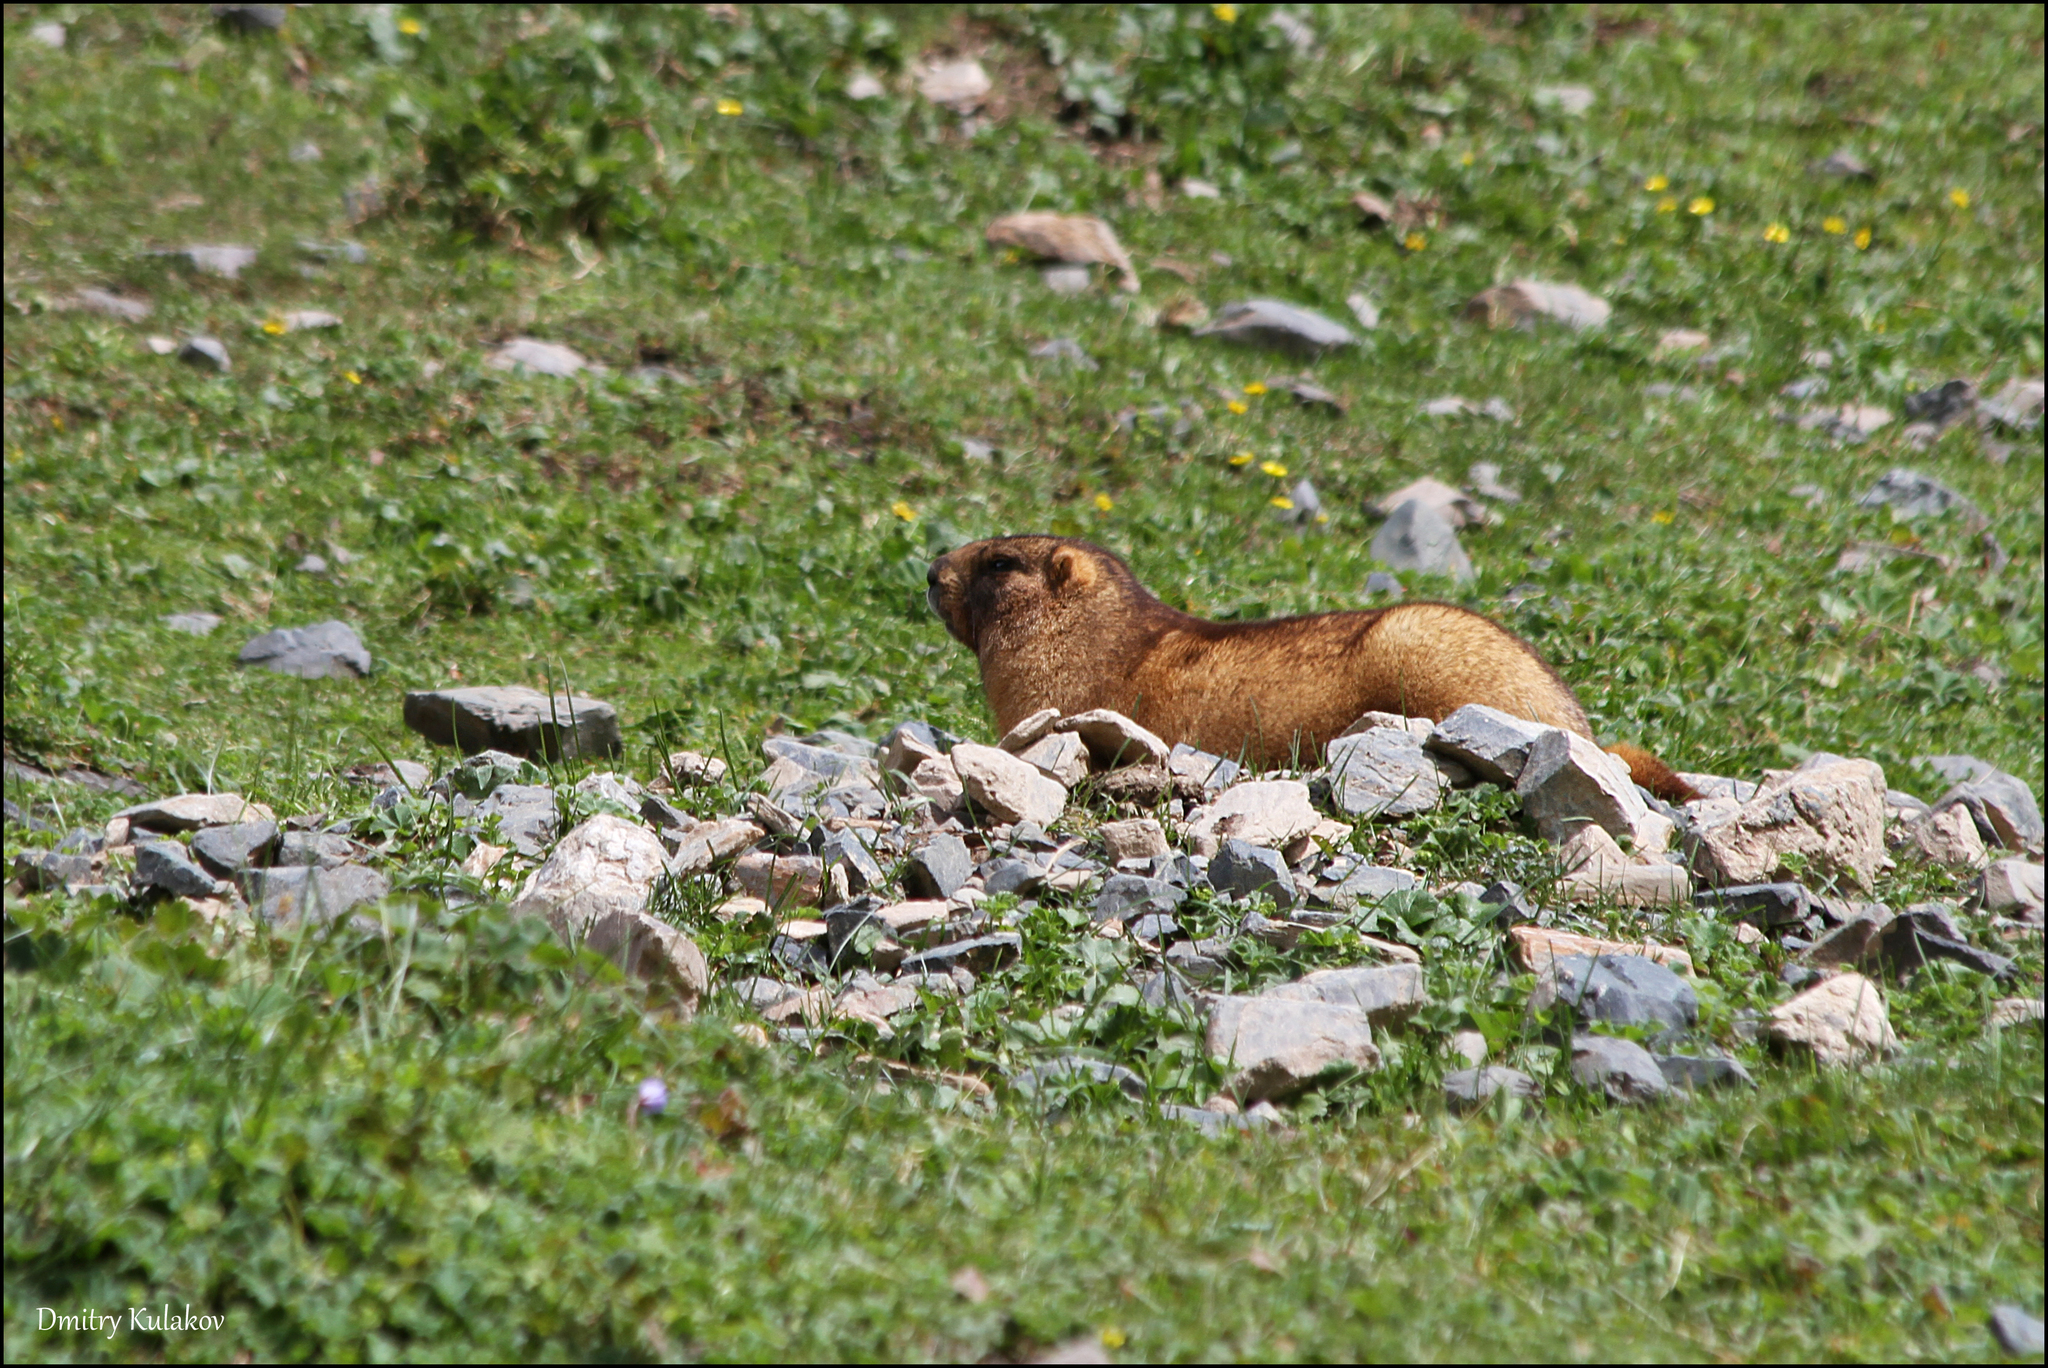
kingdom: Animalia
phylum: Chordata
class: Mammalia
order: Rodentia
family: Sciuridae
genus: Marmota
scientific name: Marmota baibacina
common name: Gray marmot
